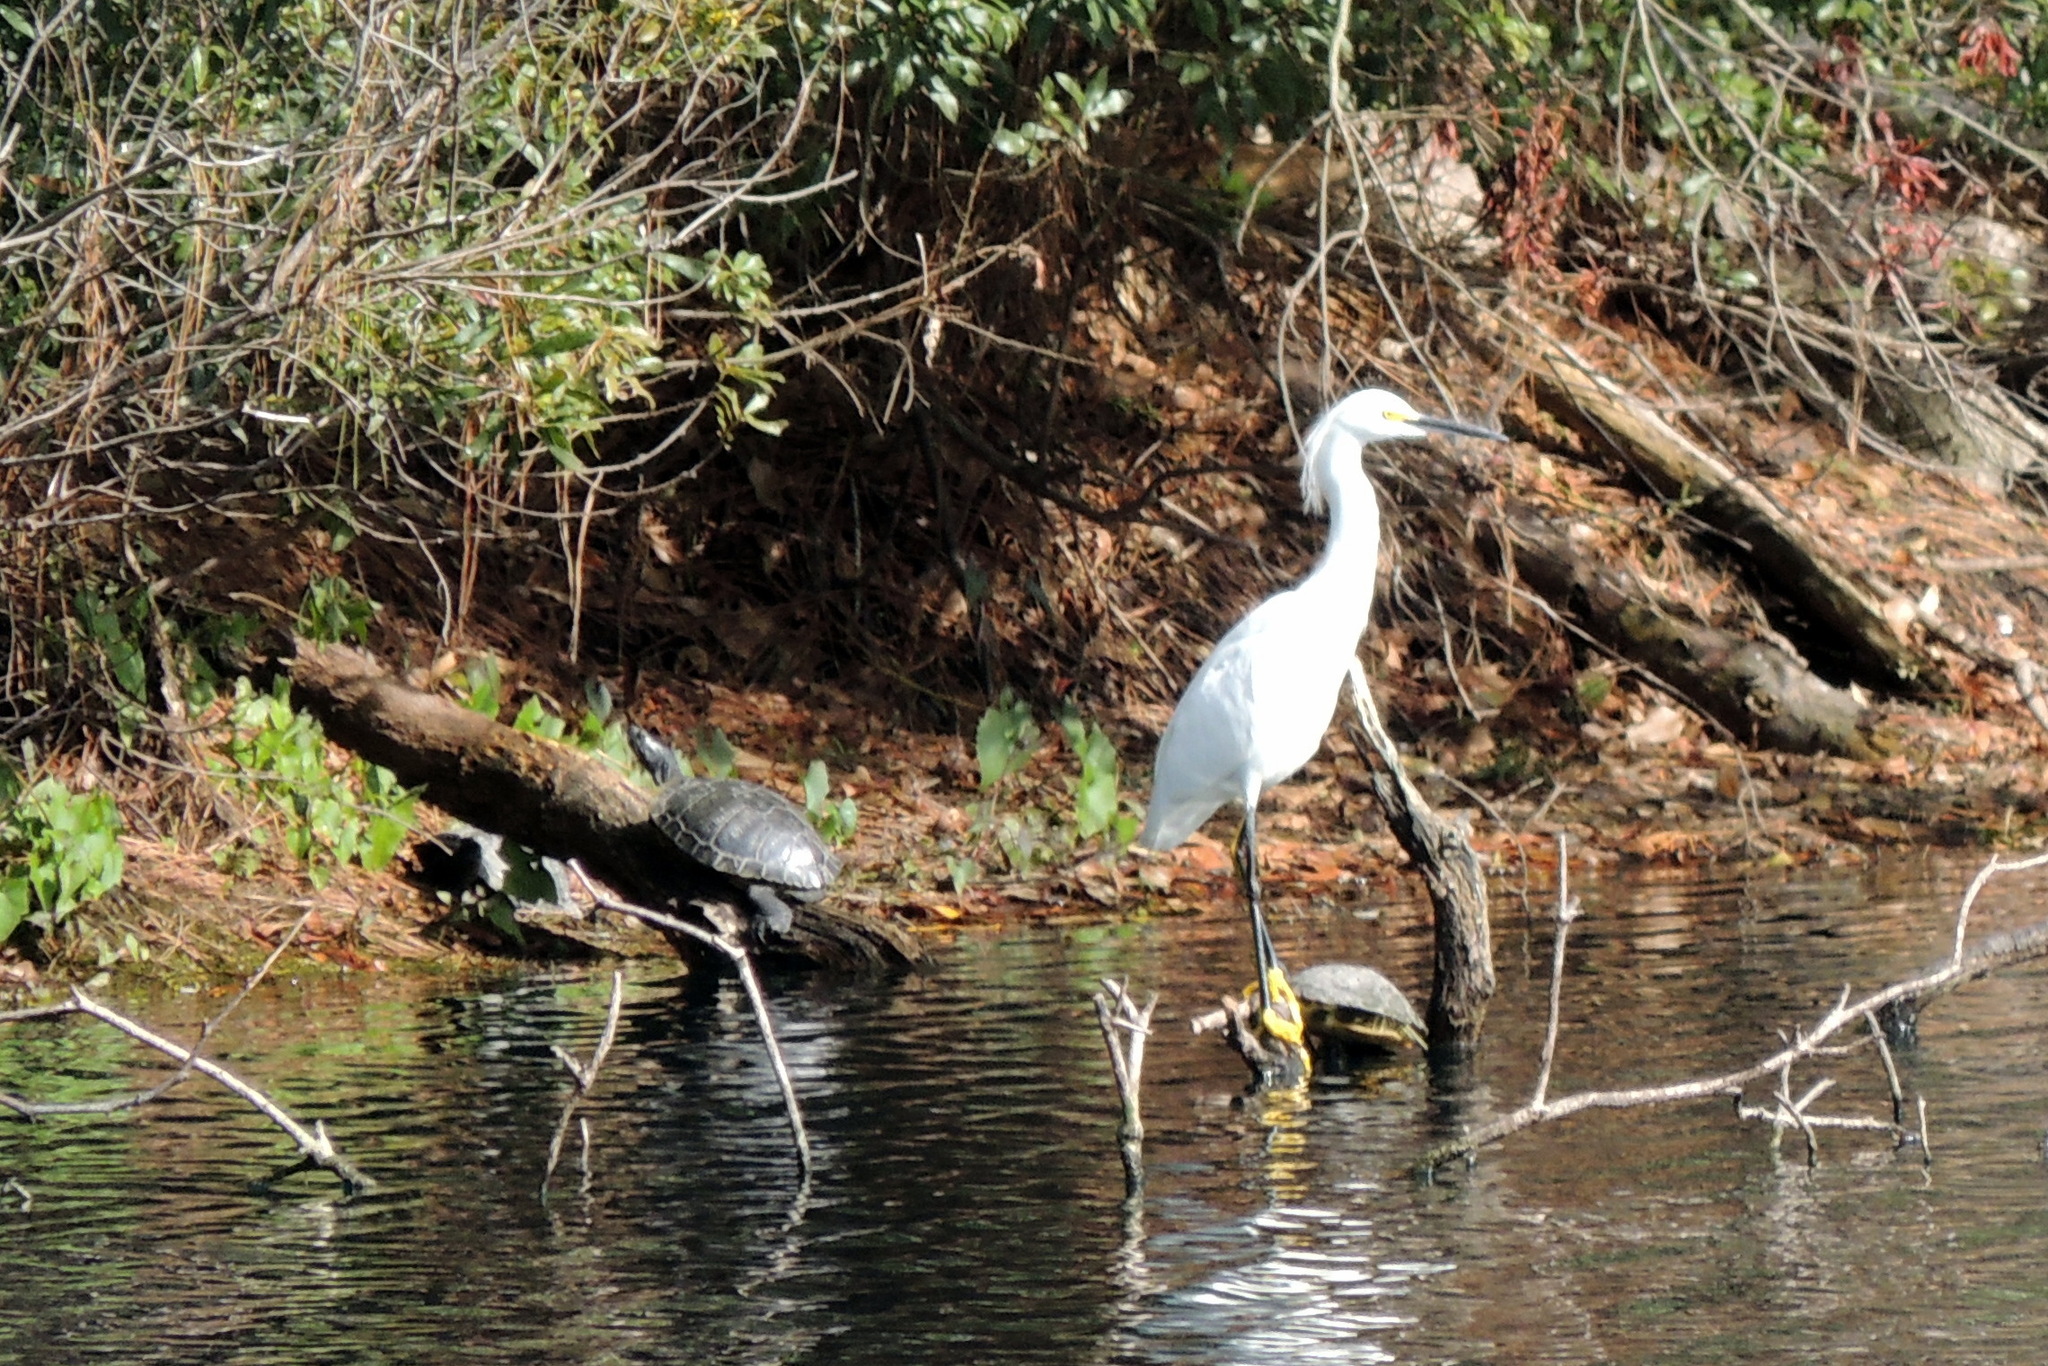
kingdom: Animalia
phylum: Chordata
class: Aves
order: Pelecaniformes
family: Ardeidae
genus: Egretta
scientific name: Egretta thula
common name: Snowy egret
